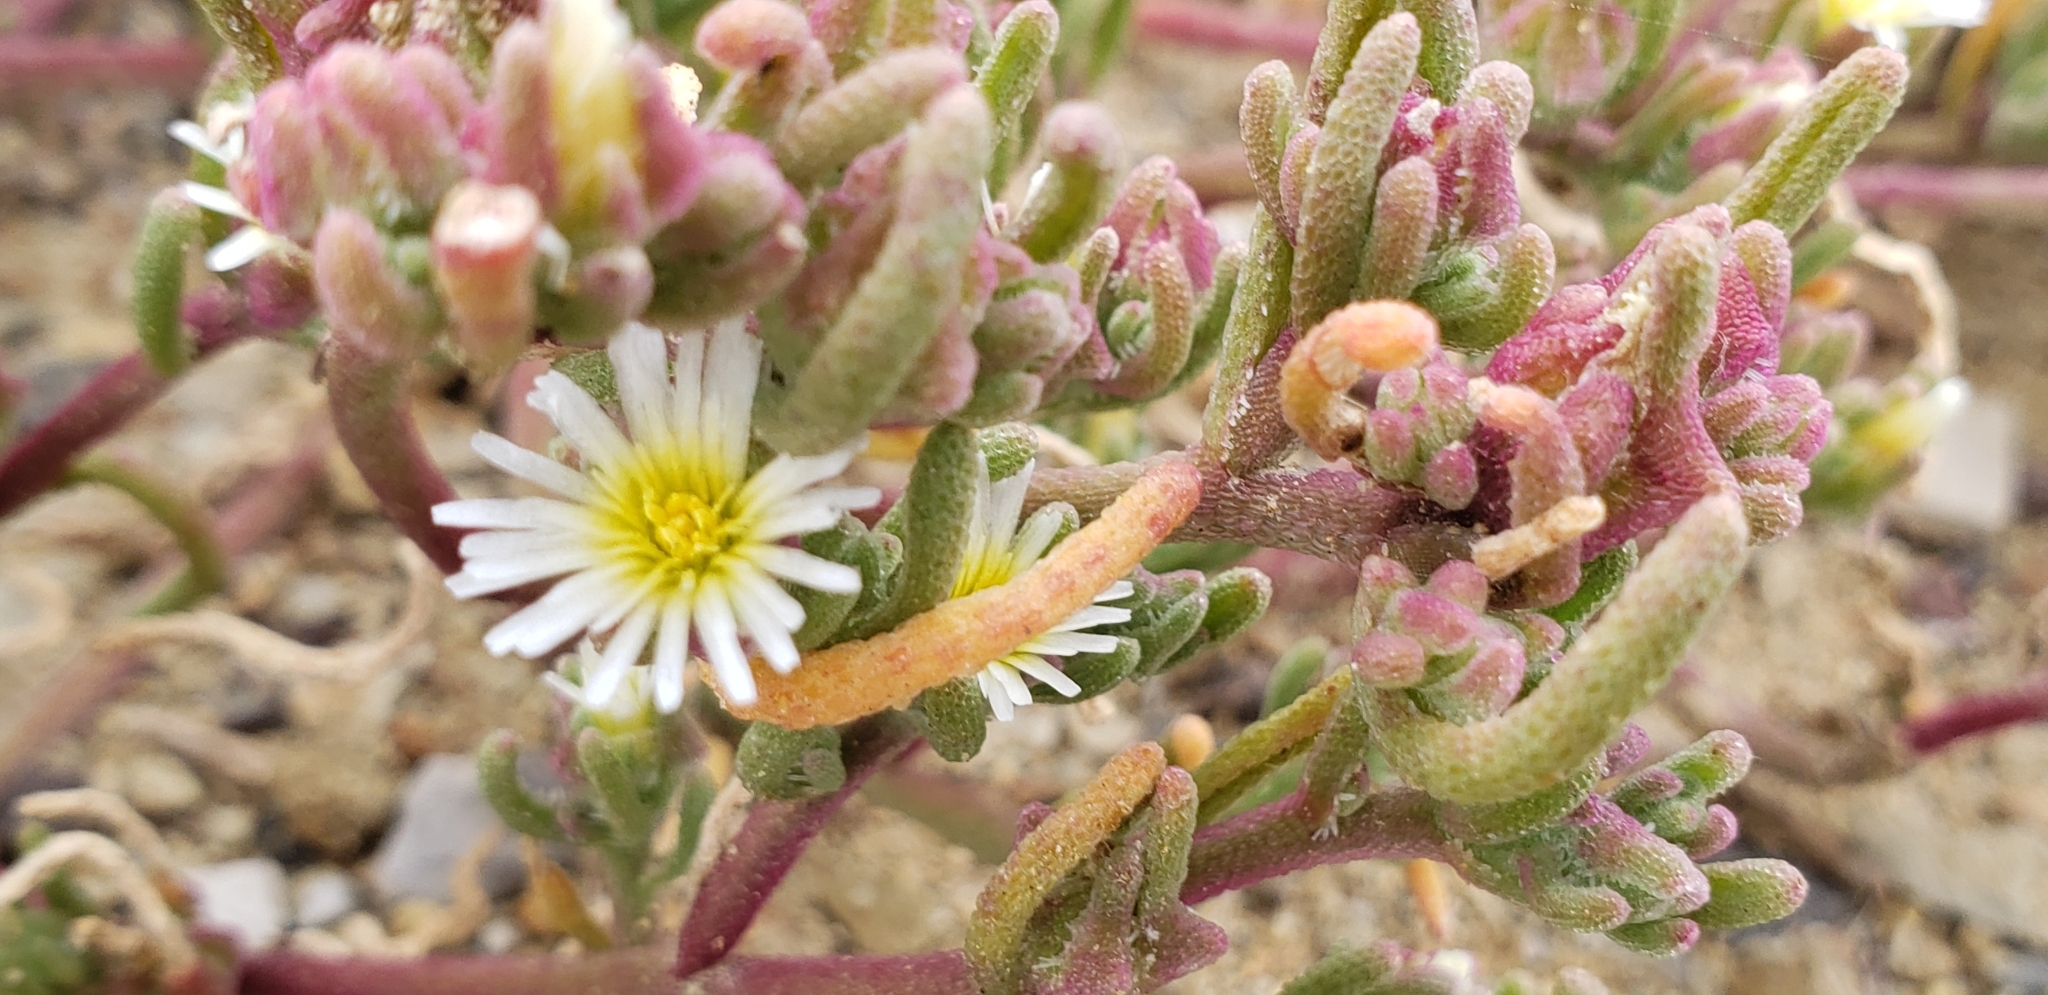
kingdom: Plantae
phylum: Tracheophyta
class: Magnoliopsida
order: Caryophyllales
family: Aizoaceae
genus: Mesembryanthemum
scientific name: Mesembryanthemum nodiflorum
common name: Slenderleaf iceplant
